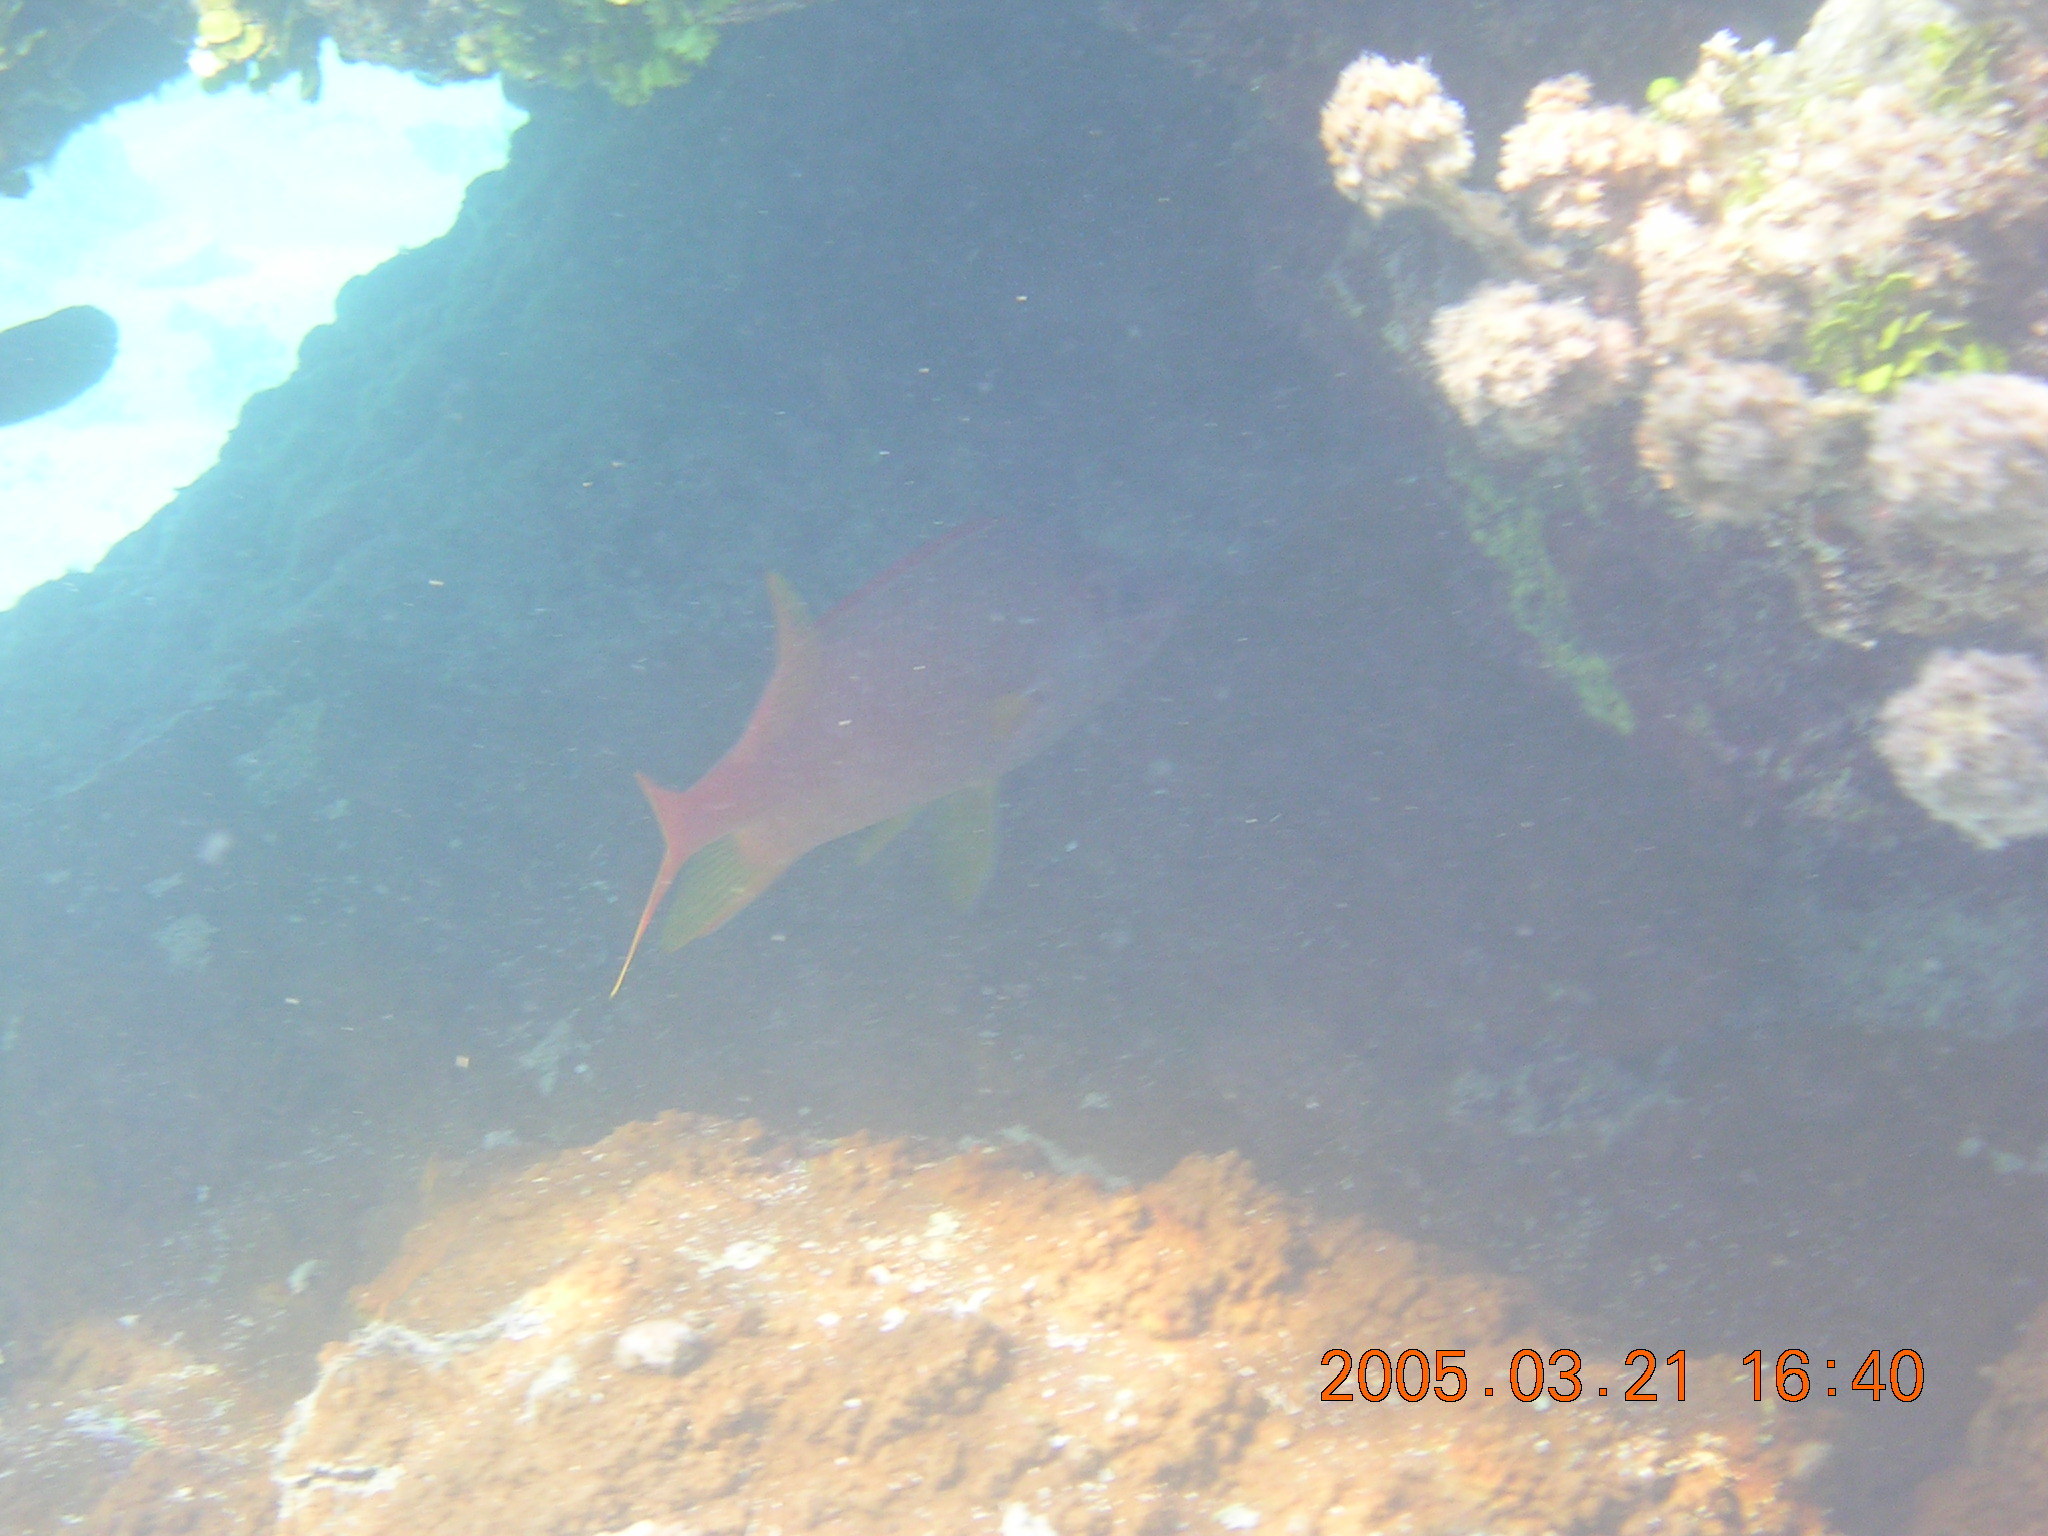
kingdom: Animalia
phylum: Chordata
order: Beryciformes
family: Holocentridae
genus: Sargocentron
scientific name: Sargocentron spiniferum
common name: Giant squirrelfish
